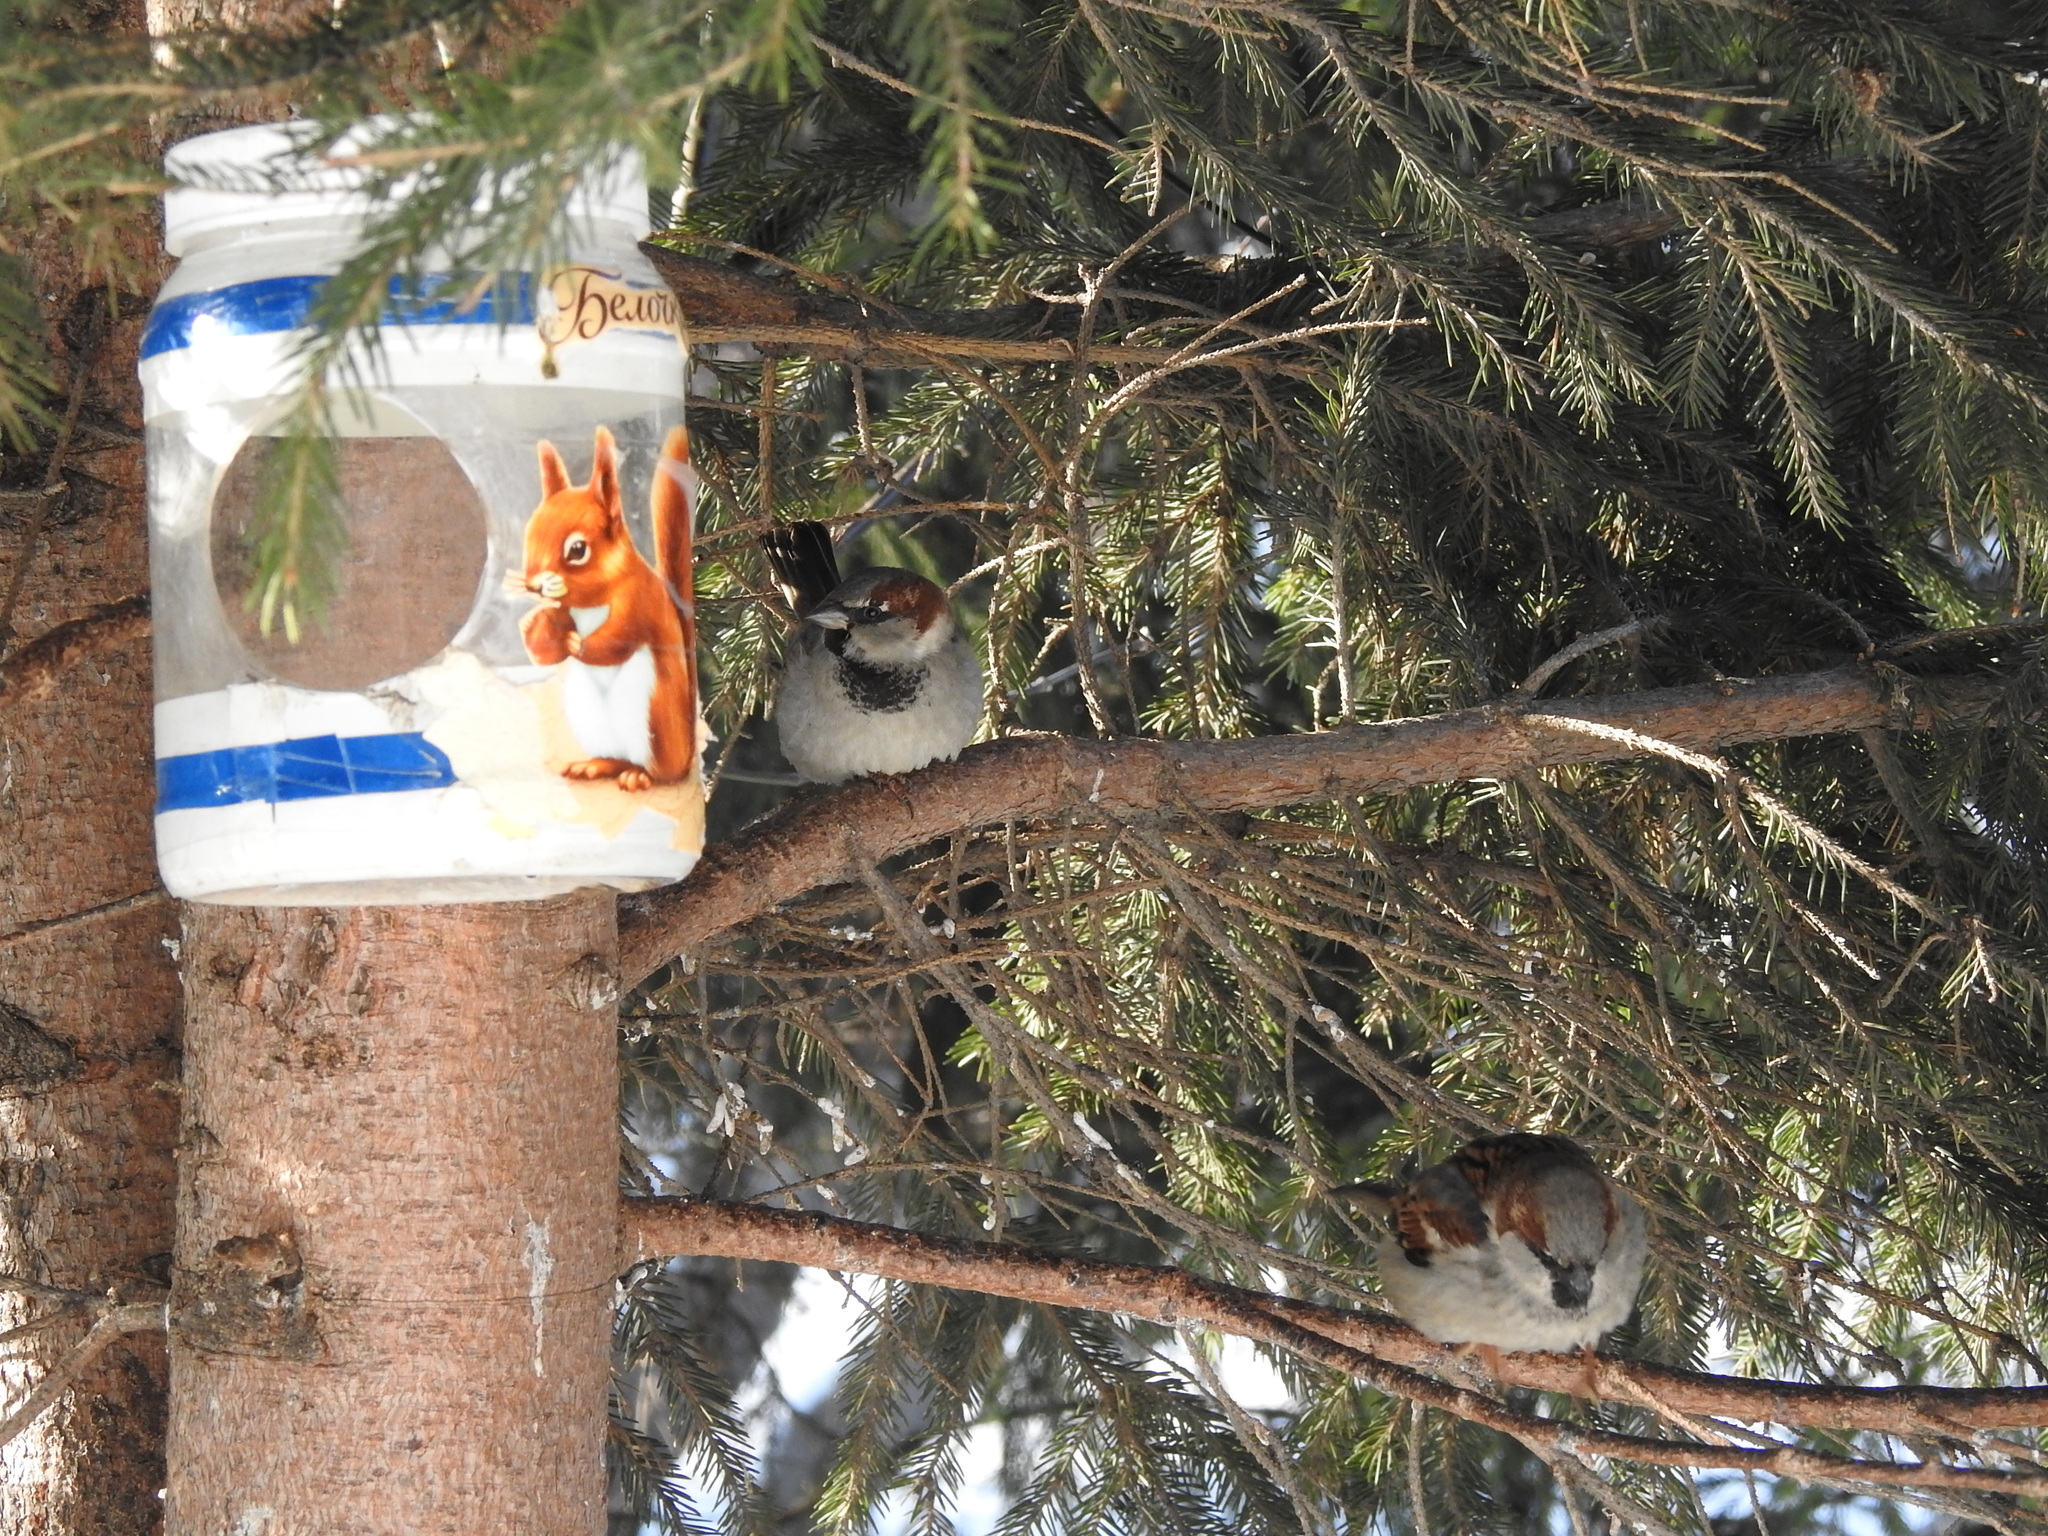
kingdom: Animalia
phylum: Chordata
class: Aves
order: Passeriformes
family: Passeridae
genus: Passer
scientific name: Passer domesticus
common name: House sparrow
